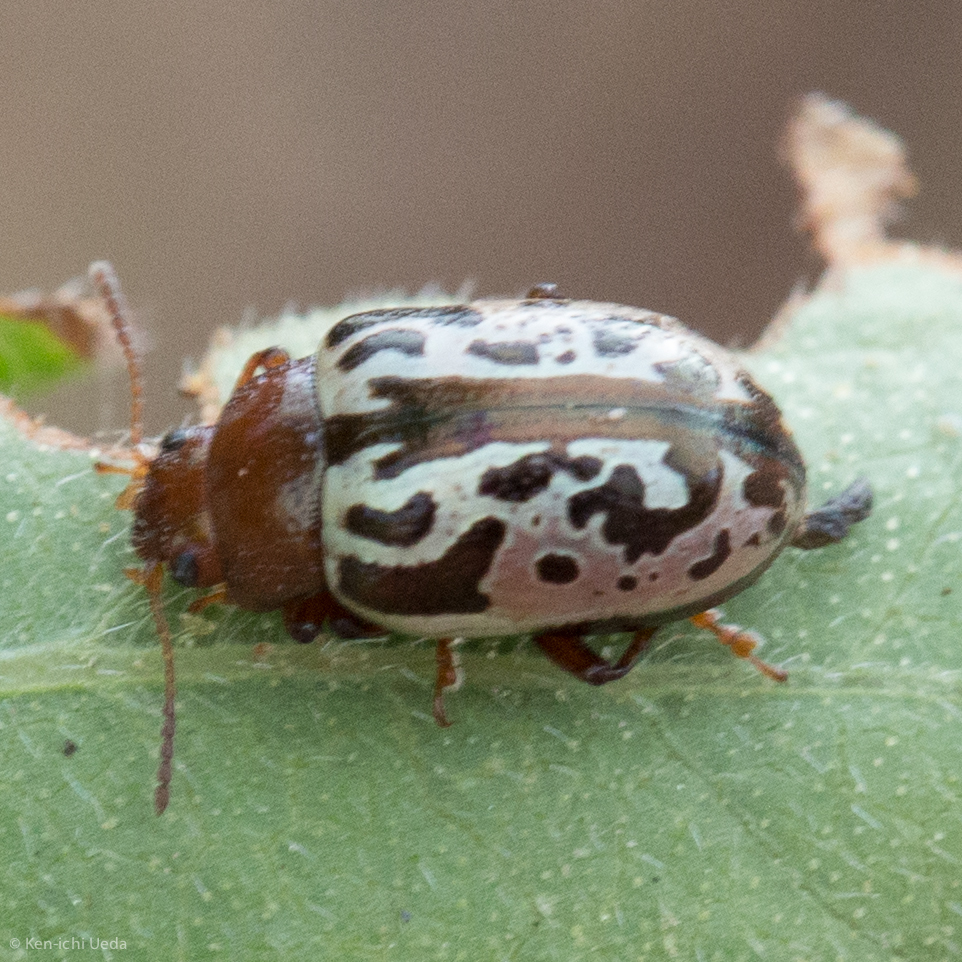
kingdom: Animalia
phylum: Arthropoda
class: Insecta
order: Coleoptera
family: Chrysomelidae
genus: Calligrapha
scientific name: Calligrapha
